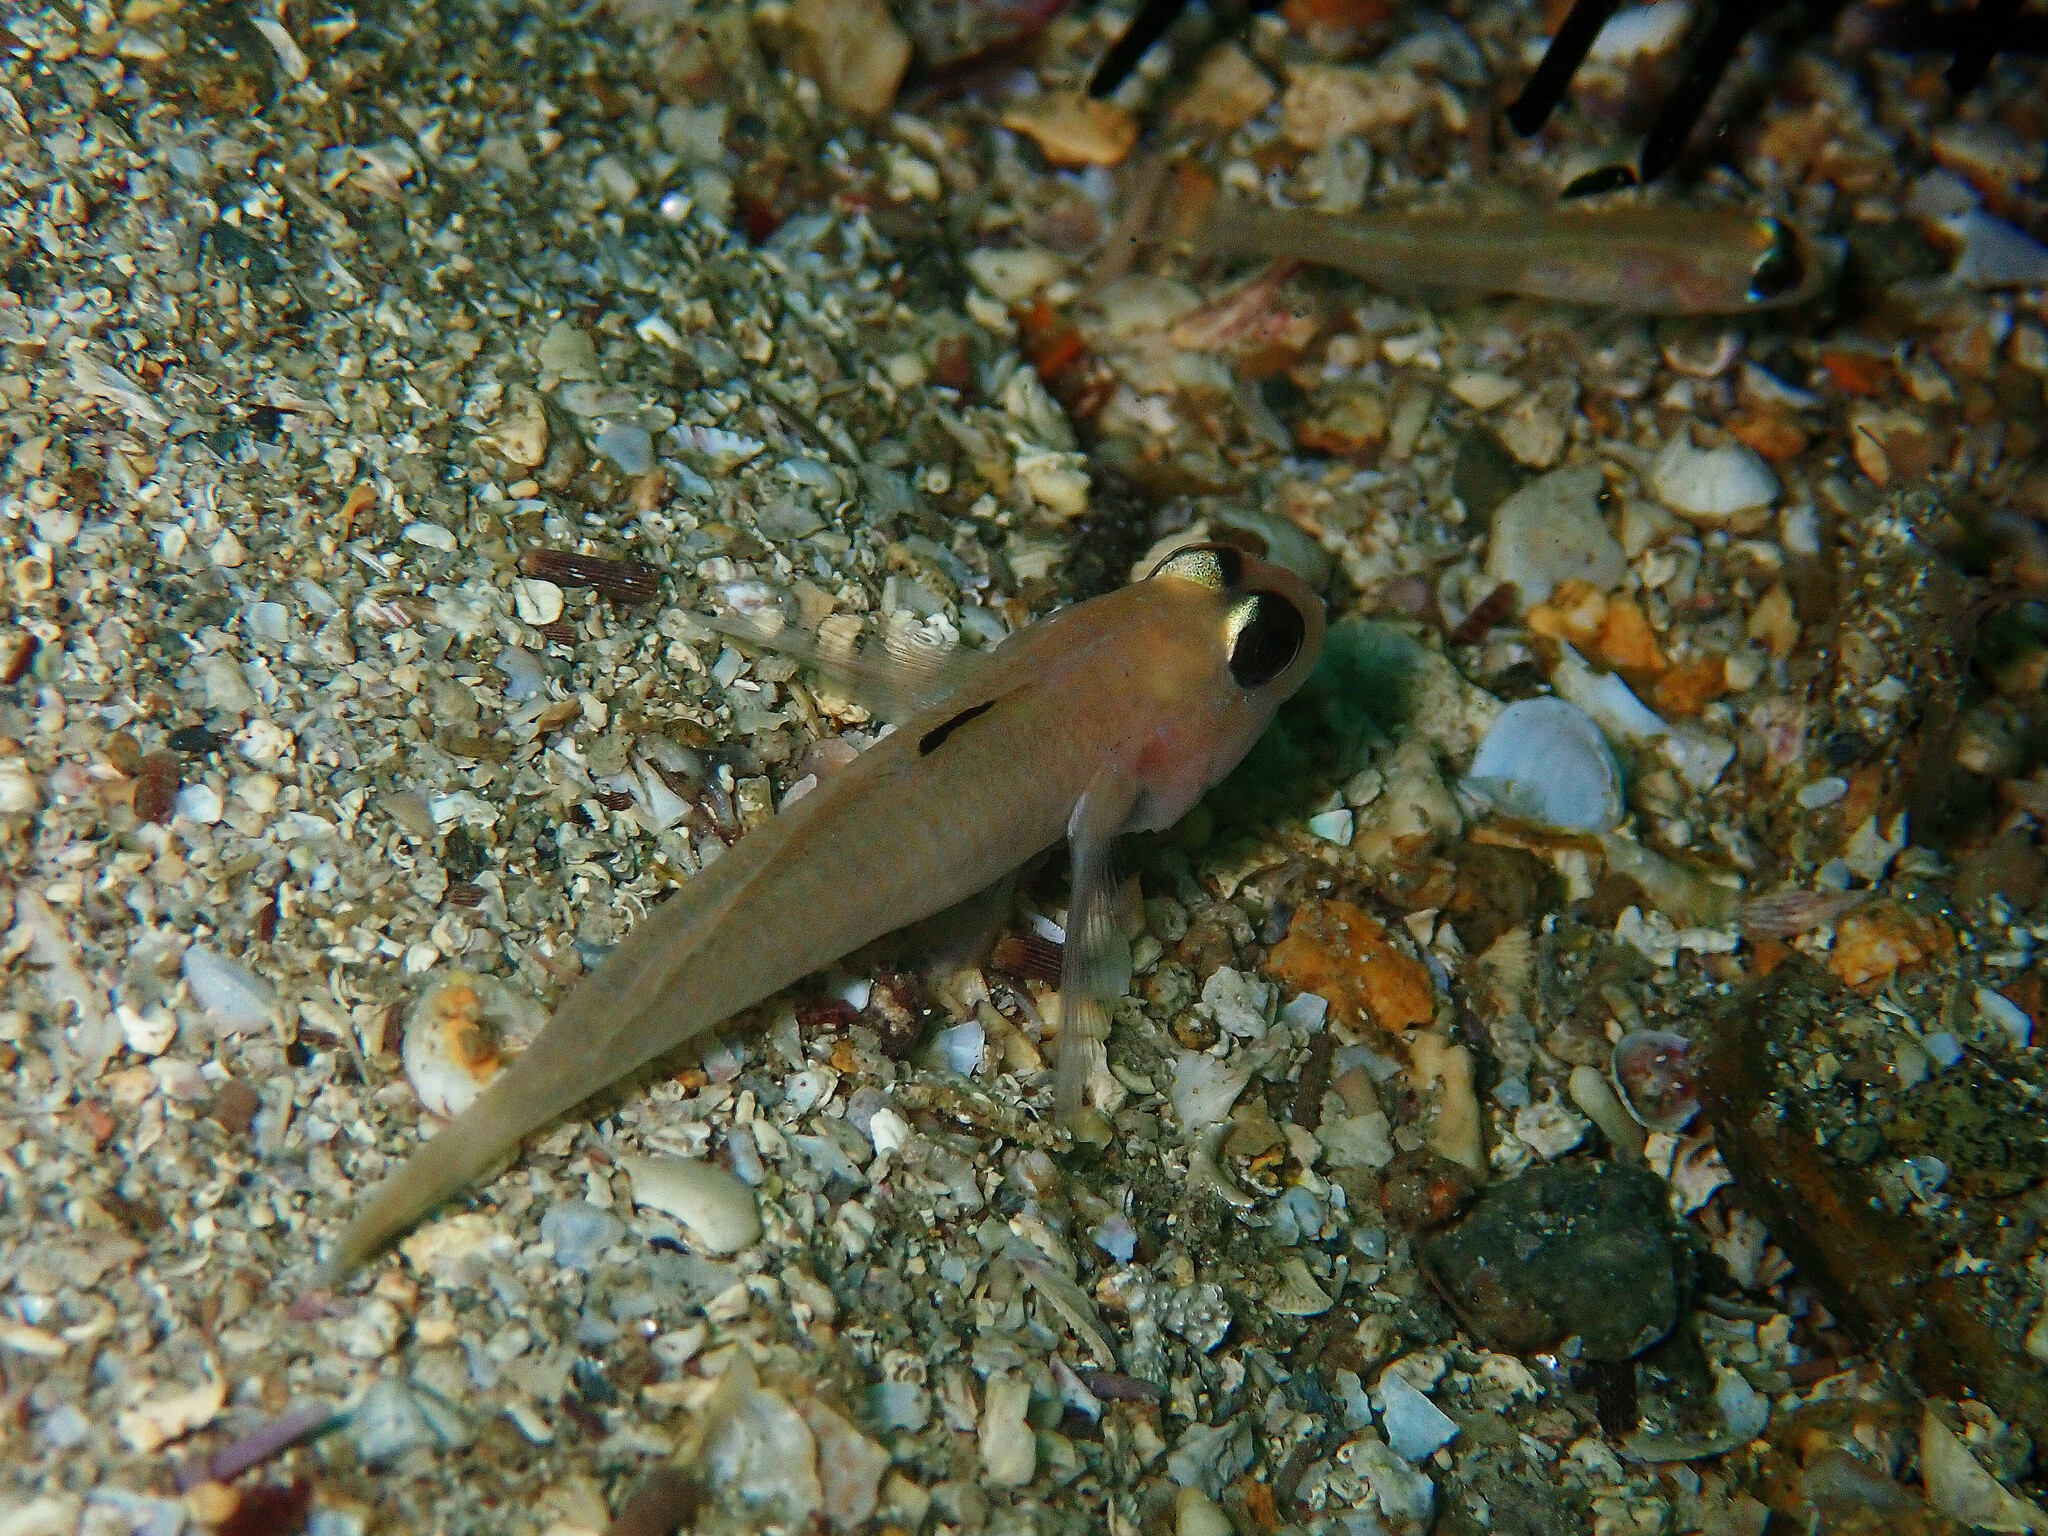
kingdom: Animalia
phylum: Chordata
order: Perciformes
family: Gobiidae
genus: Rhinogobiops
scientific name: Rhinogobiops nicholsii
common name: Blackeye goby
